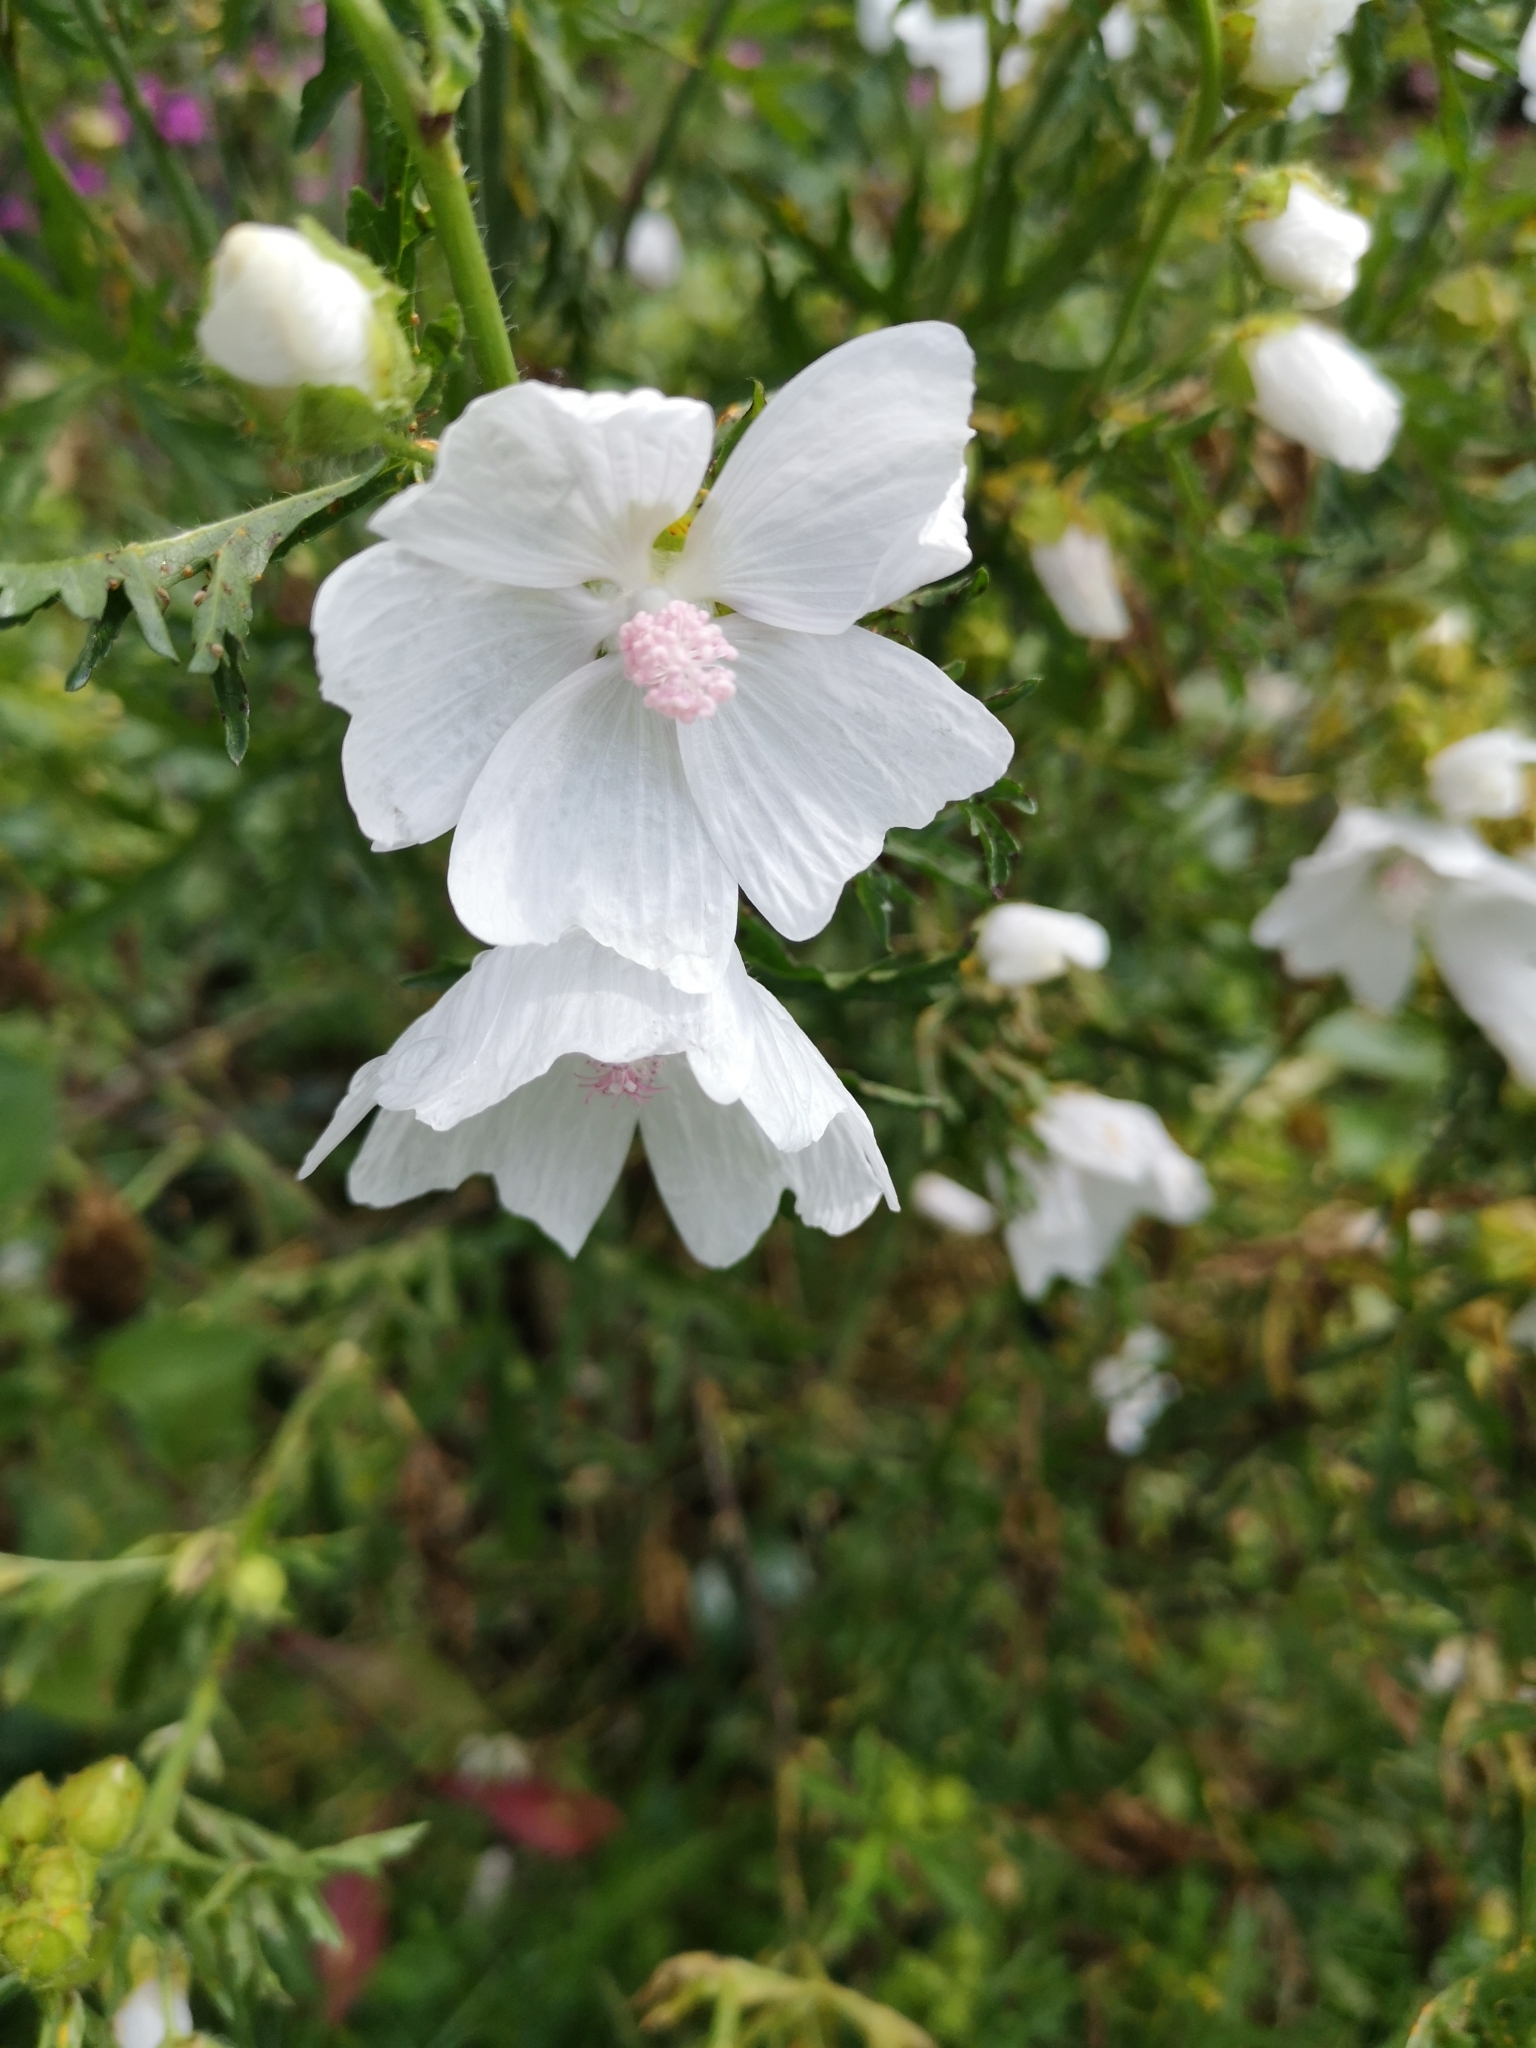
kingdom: Plantae
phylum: Tracheophyta
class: Magnoliopsida
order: Malvales
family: Malvaceae
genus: Malva
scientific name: Malva moschata
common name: Musk mallow
